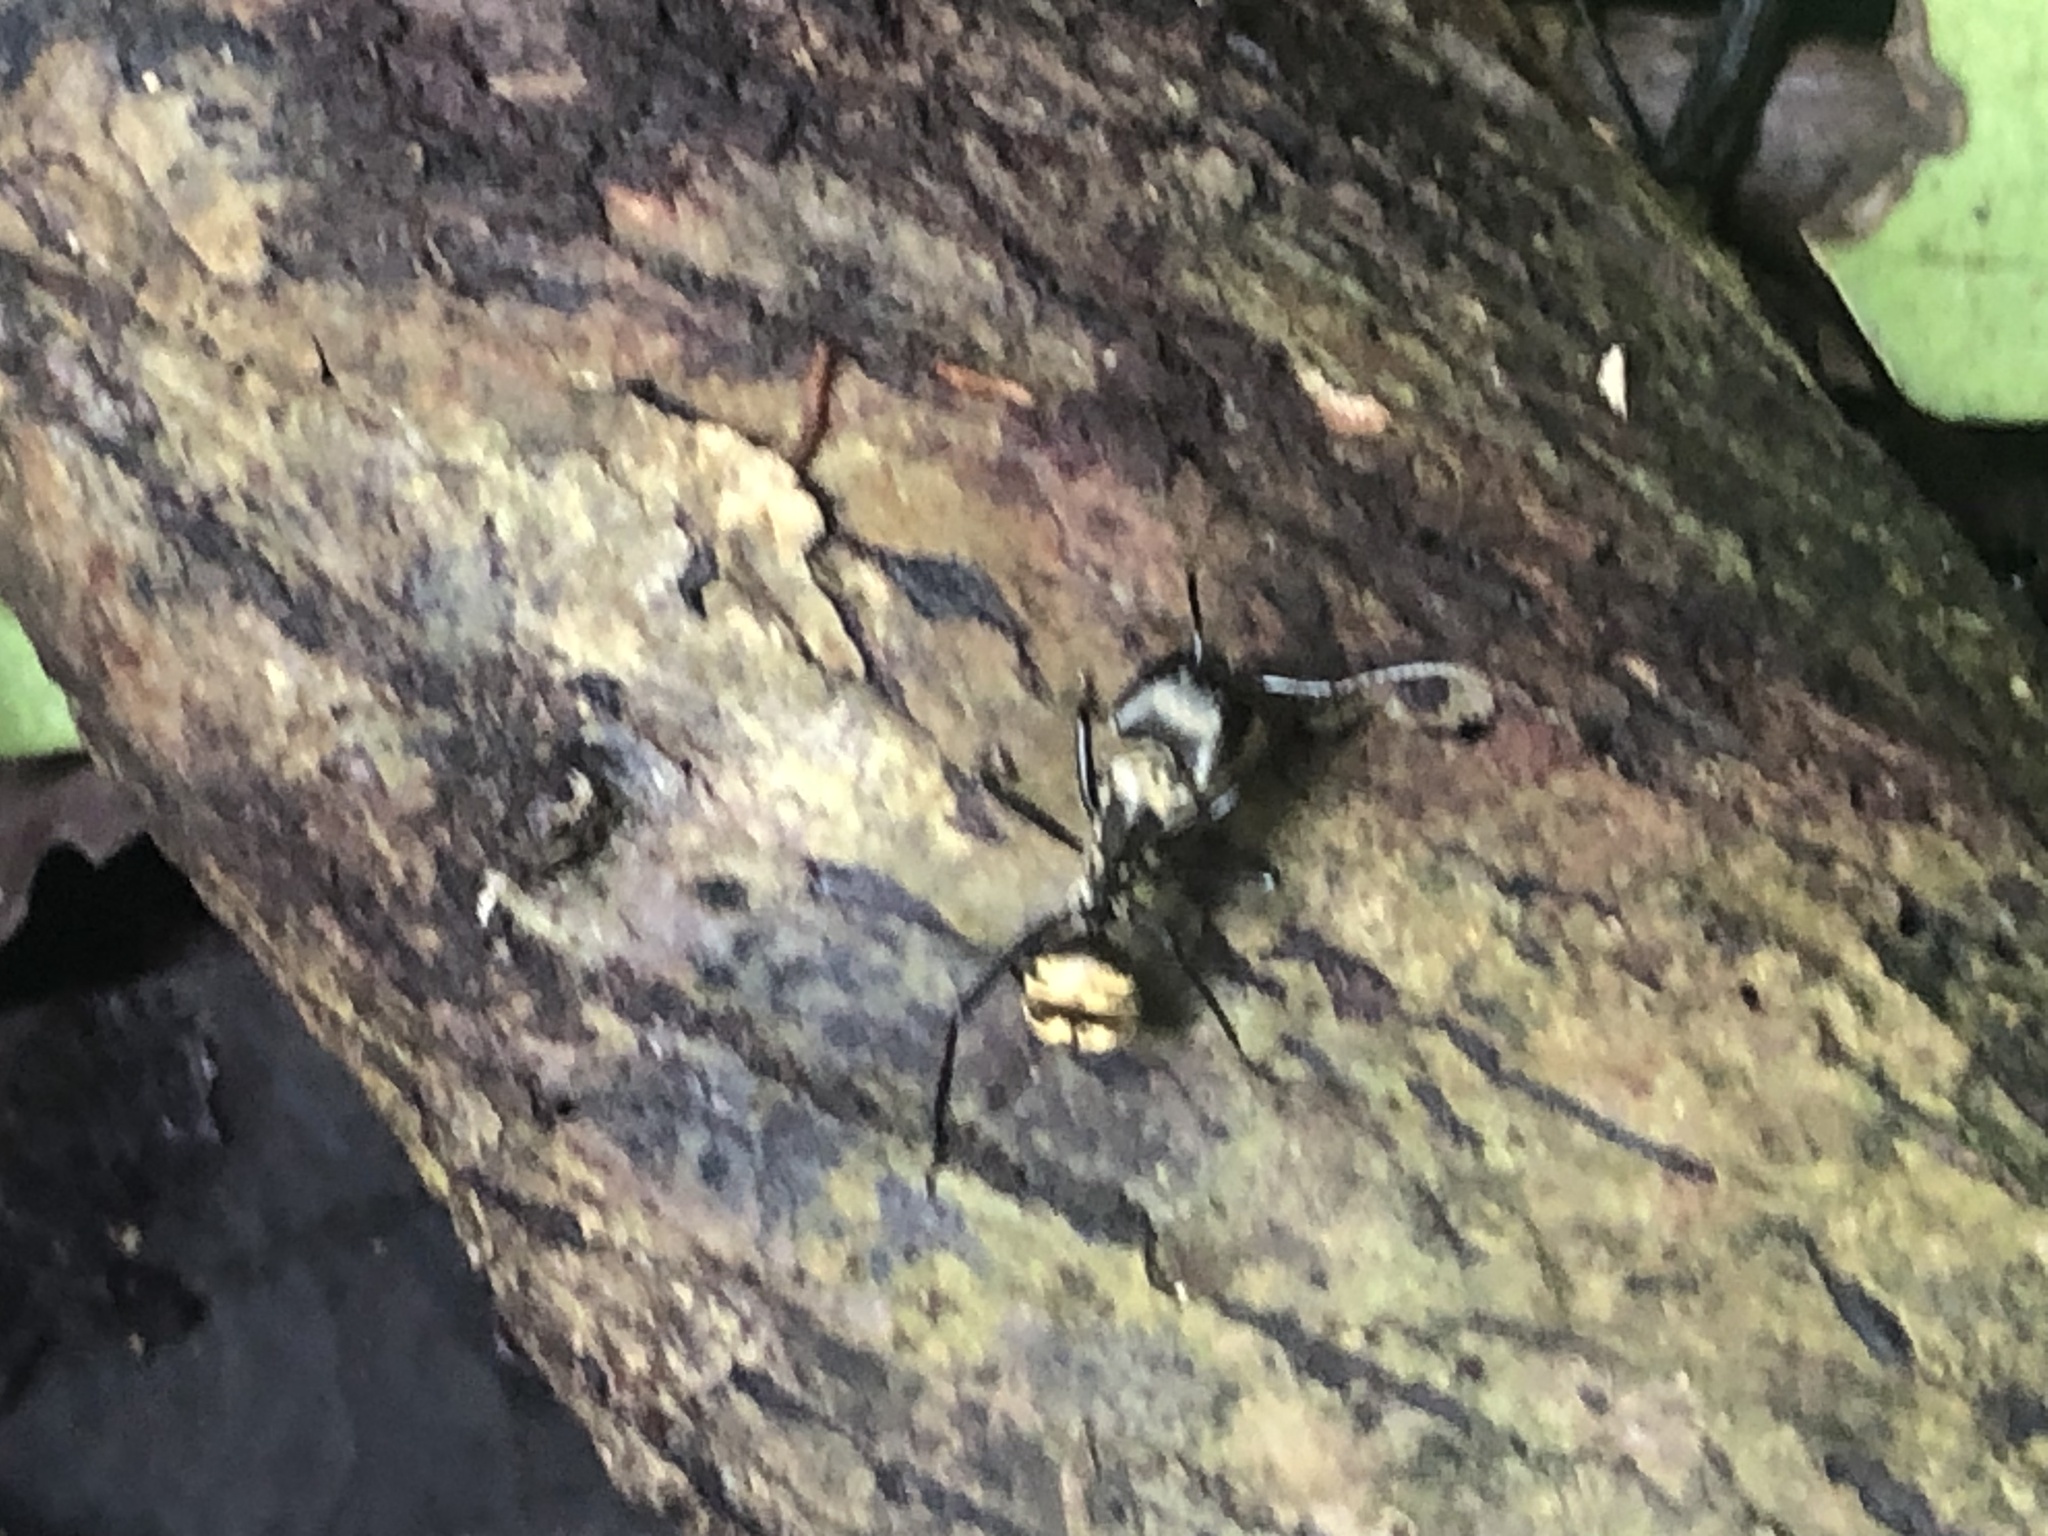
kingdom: Animalia
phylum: Arthropoda
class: Insecta
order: Hymenoptera
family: Formicidae
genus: Camponotus
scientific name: Camponotus sericeiventris
